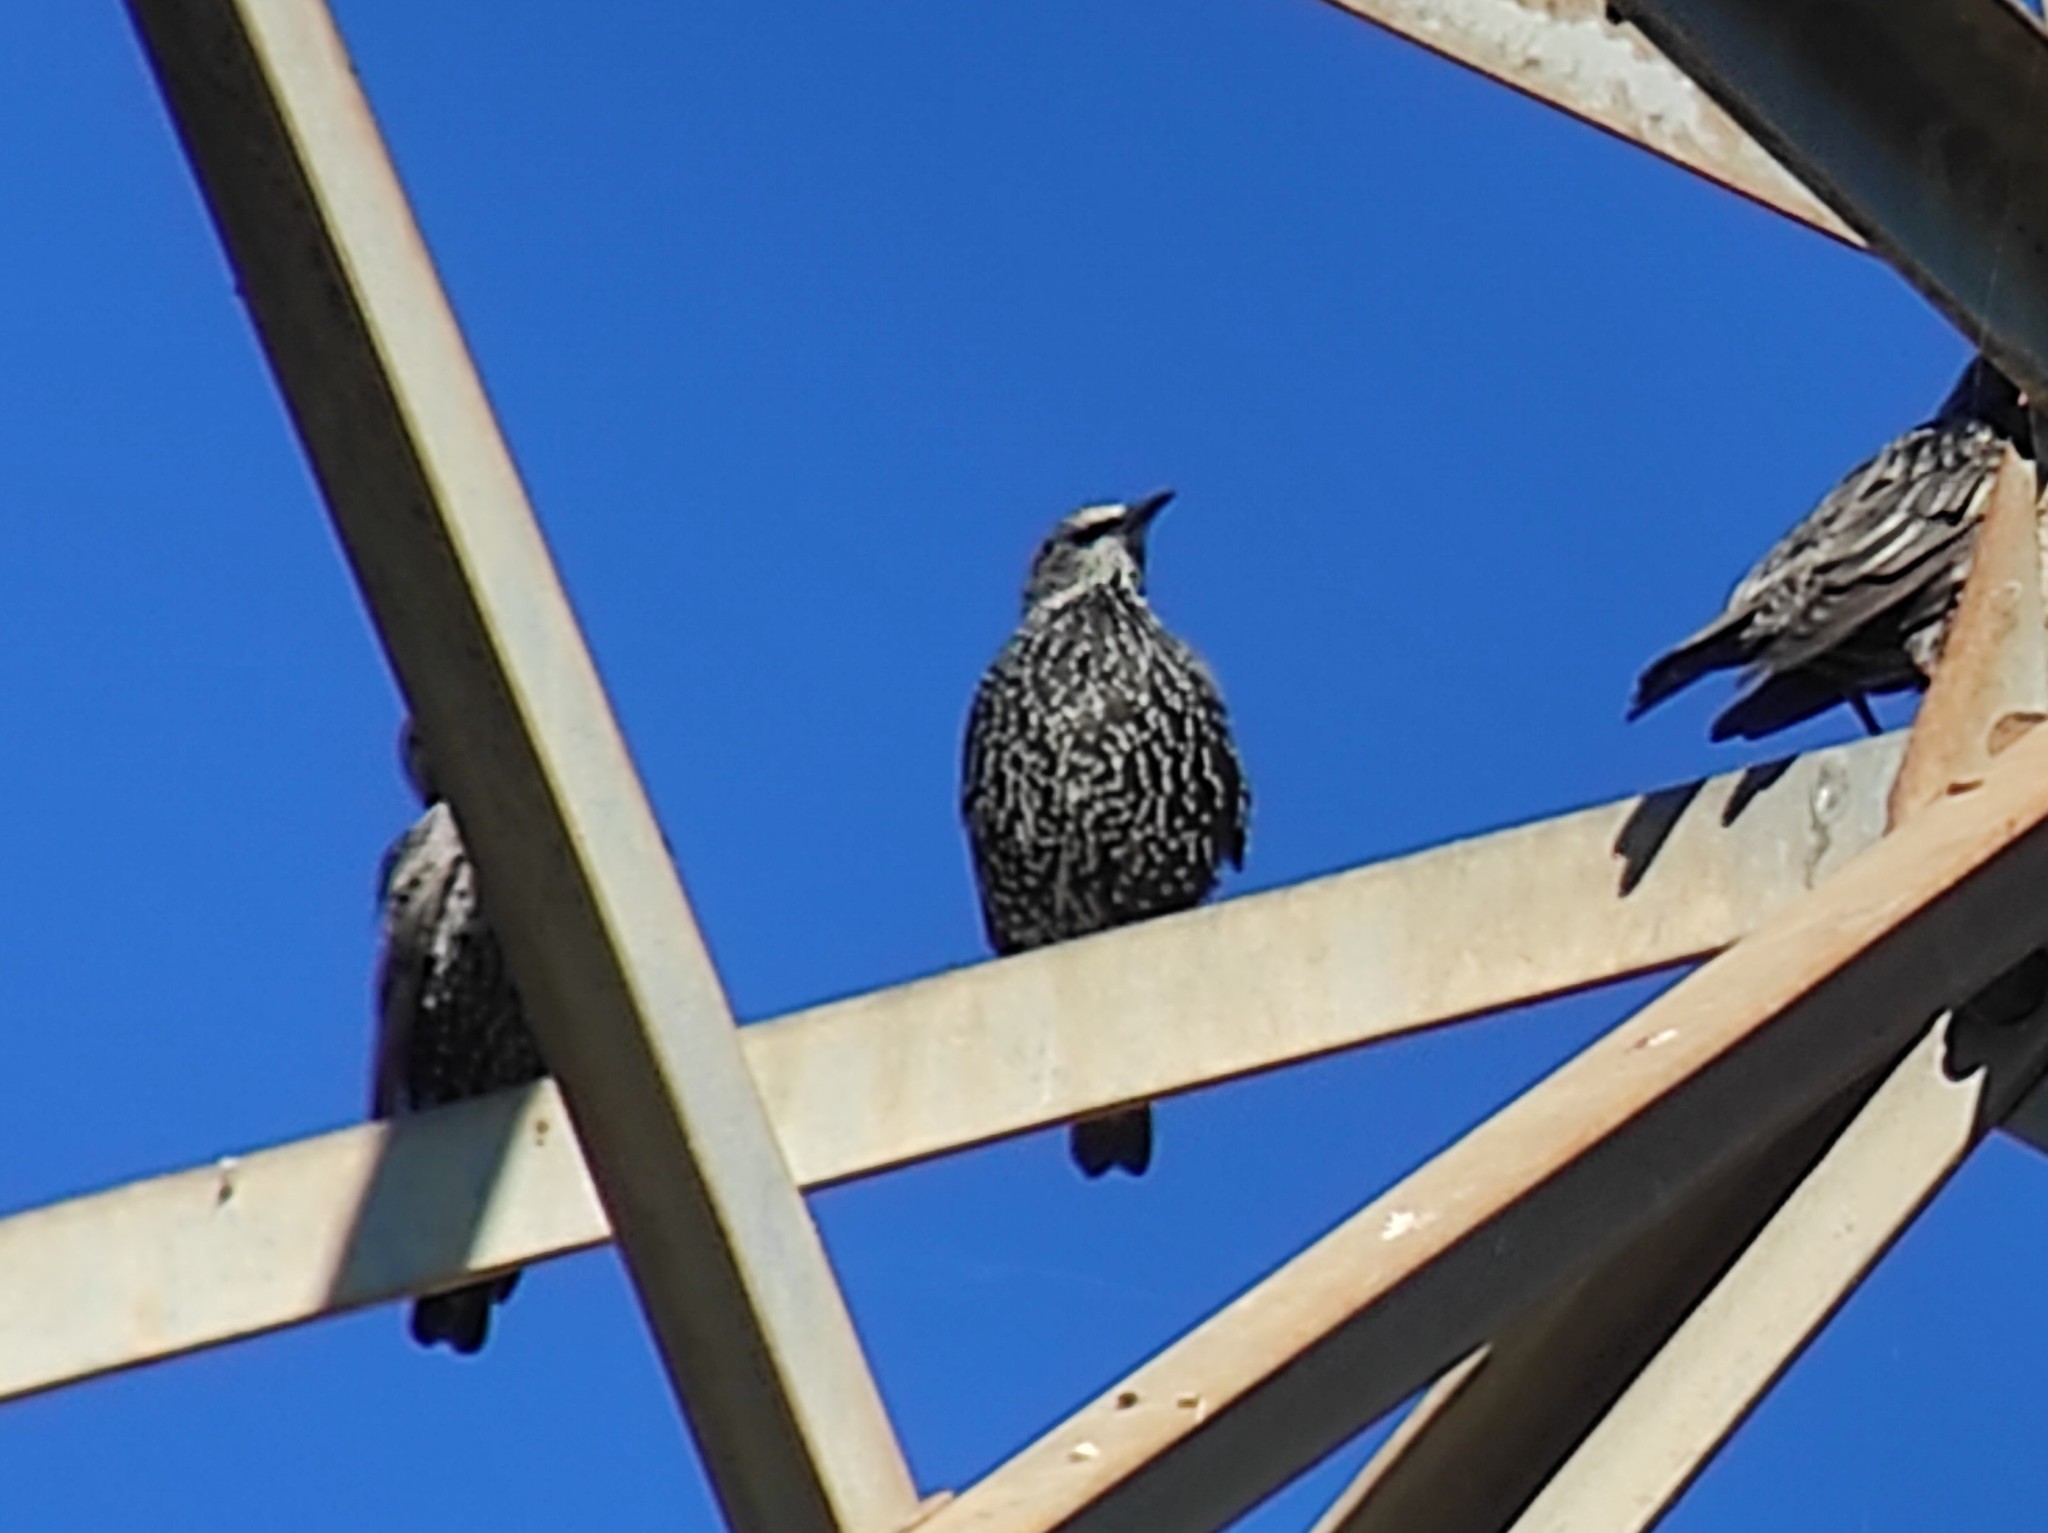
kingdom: Animalia
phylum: Chordata
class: Aves
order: Passeriformes
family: Sturnidae
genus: Sturnus
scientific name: Sturnus unicolor
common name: Spotless starling
